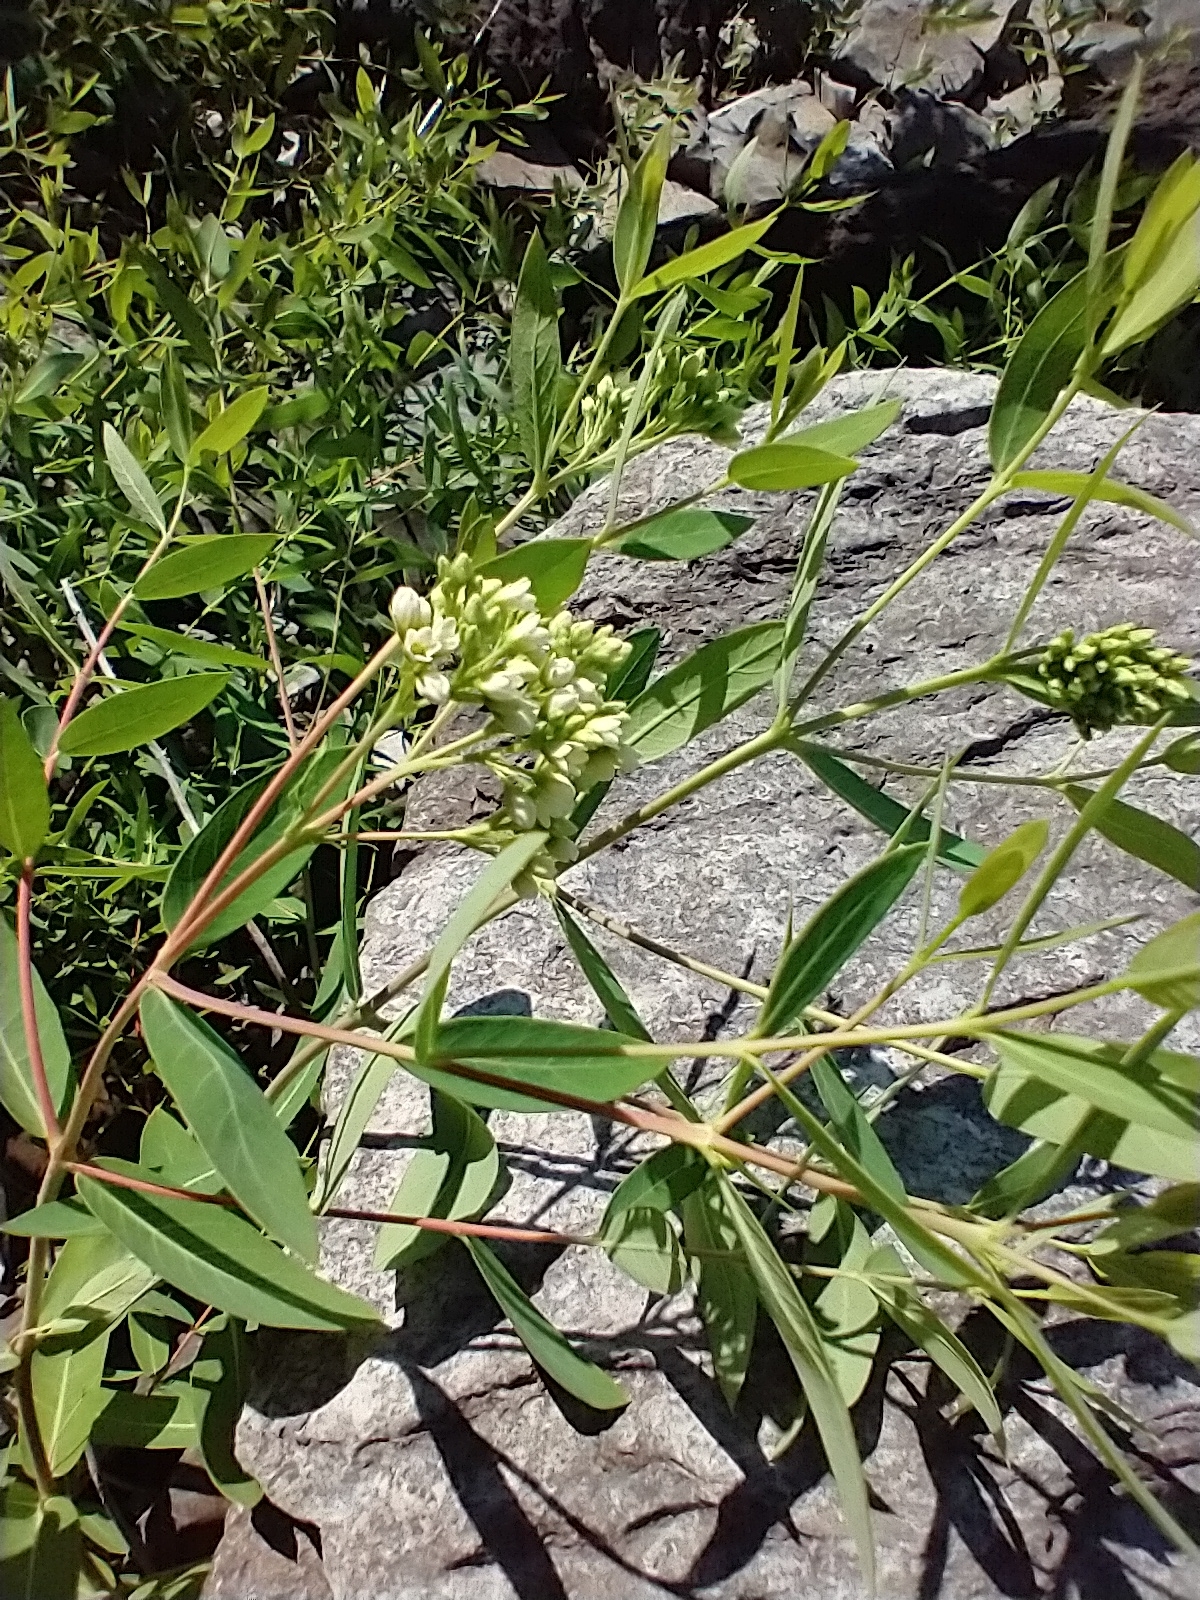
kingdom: Plantae
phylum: Tracheophyta
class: Magnoliopsida
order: Gentianales
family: Apocynaceae
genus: Apocynum
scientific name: Apocynum cannabinum
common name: Hemp dogbane
